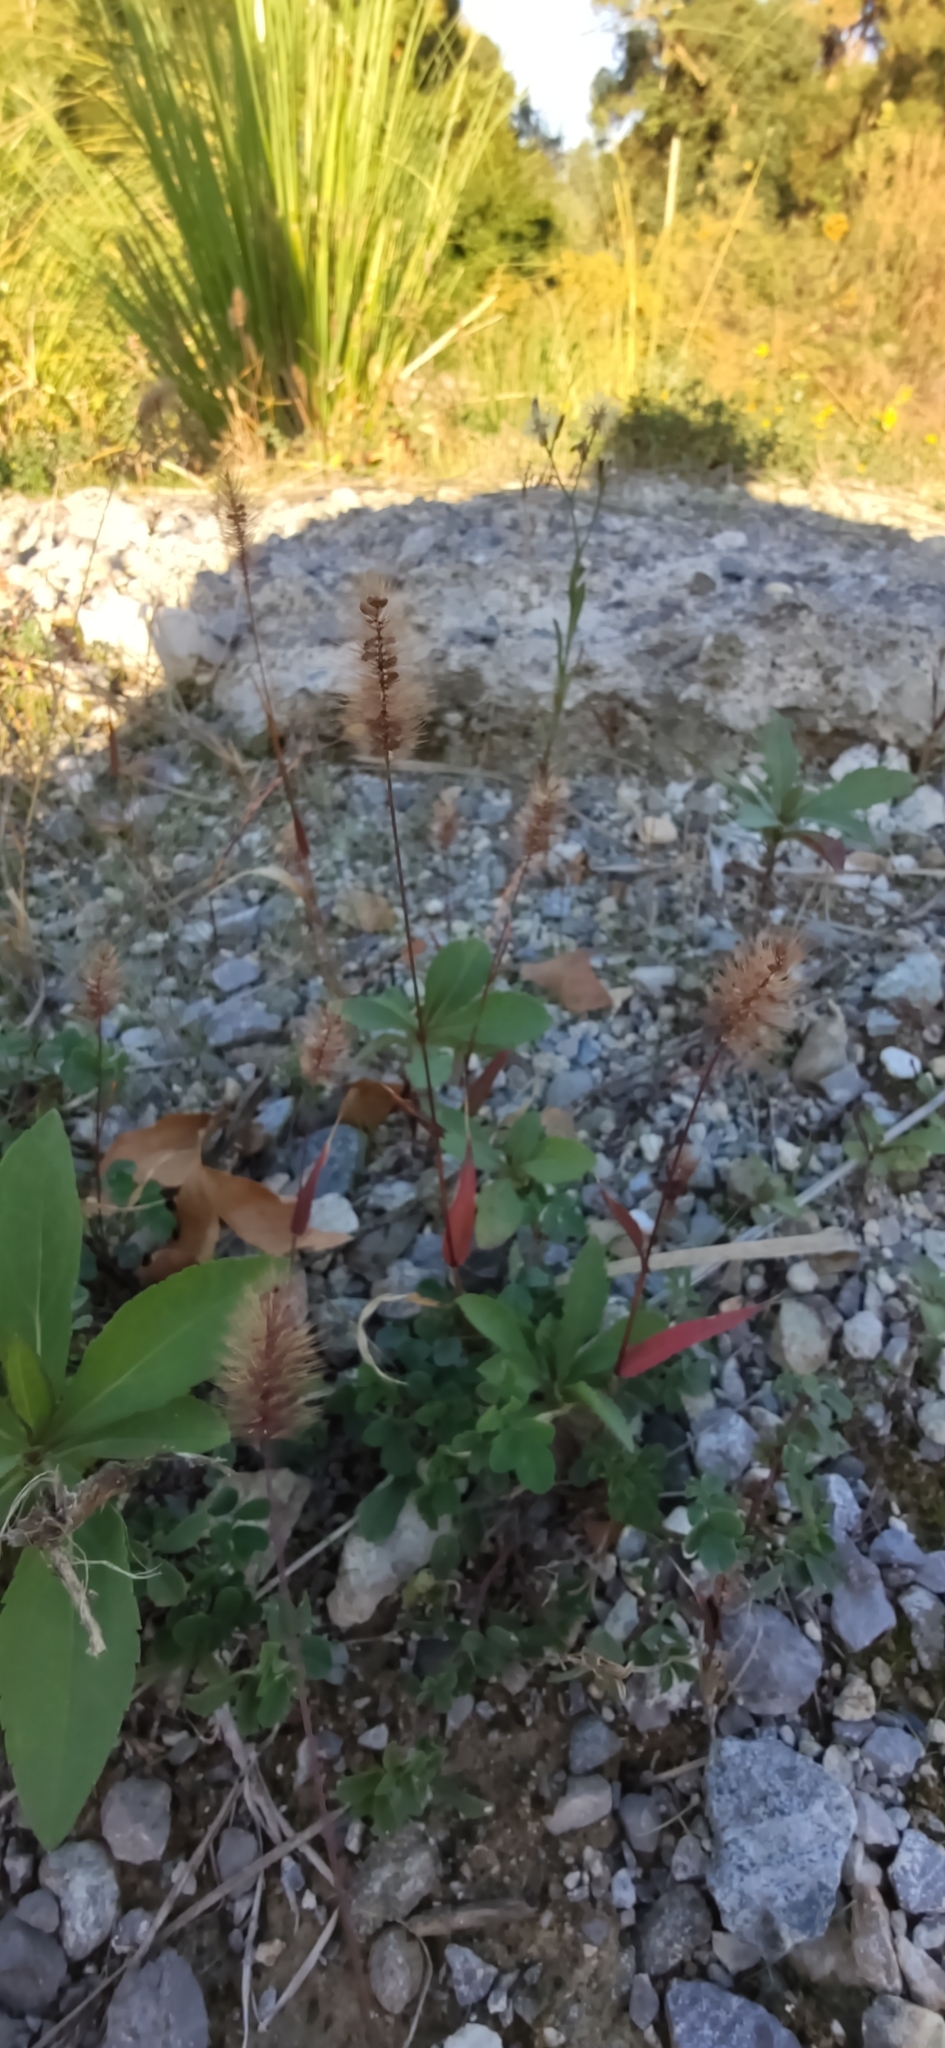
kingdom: Plantae
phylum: Tracheophyta
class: Liliopsida
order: Poales
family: Poaceae
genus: Setaria
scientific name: Setaria pumila
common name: Yellow bristle-grass
